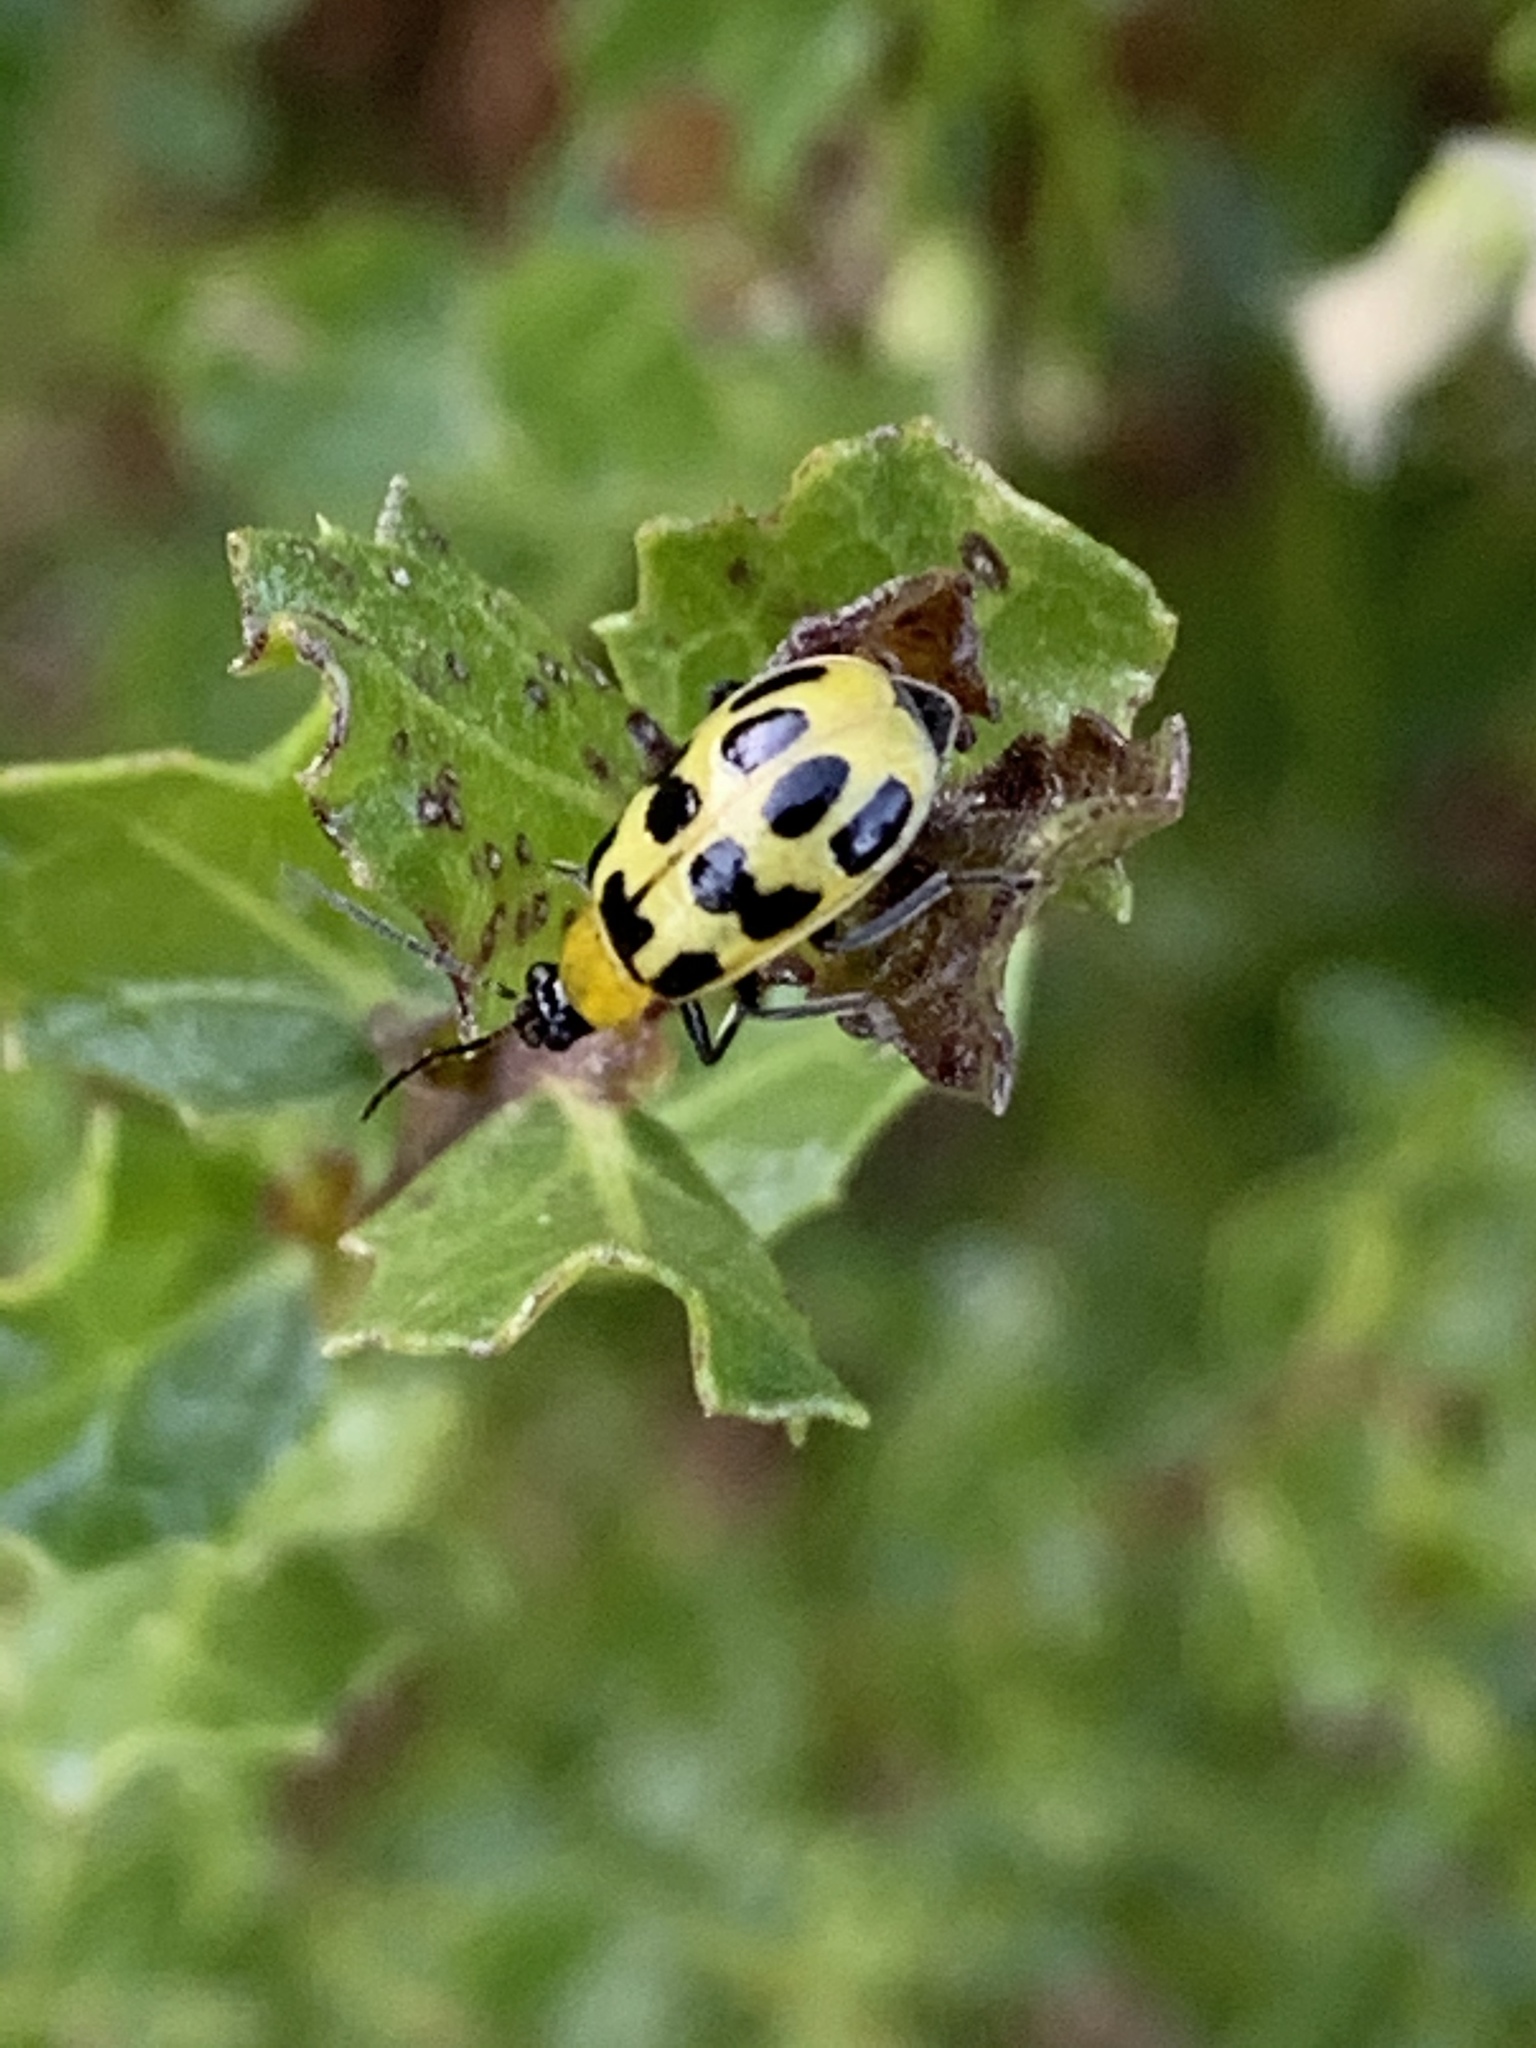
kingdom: Animalia
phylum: Arthropoda
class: Insecta
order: Coleoptera
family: Chrysomelidae
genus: Diabrotica
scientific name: Diabrotica undecimpunctata
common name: Spotted cucumber beetle
